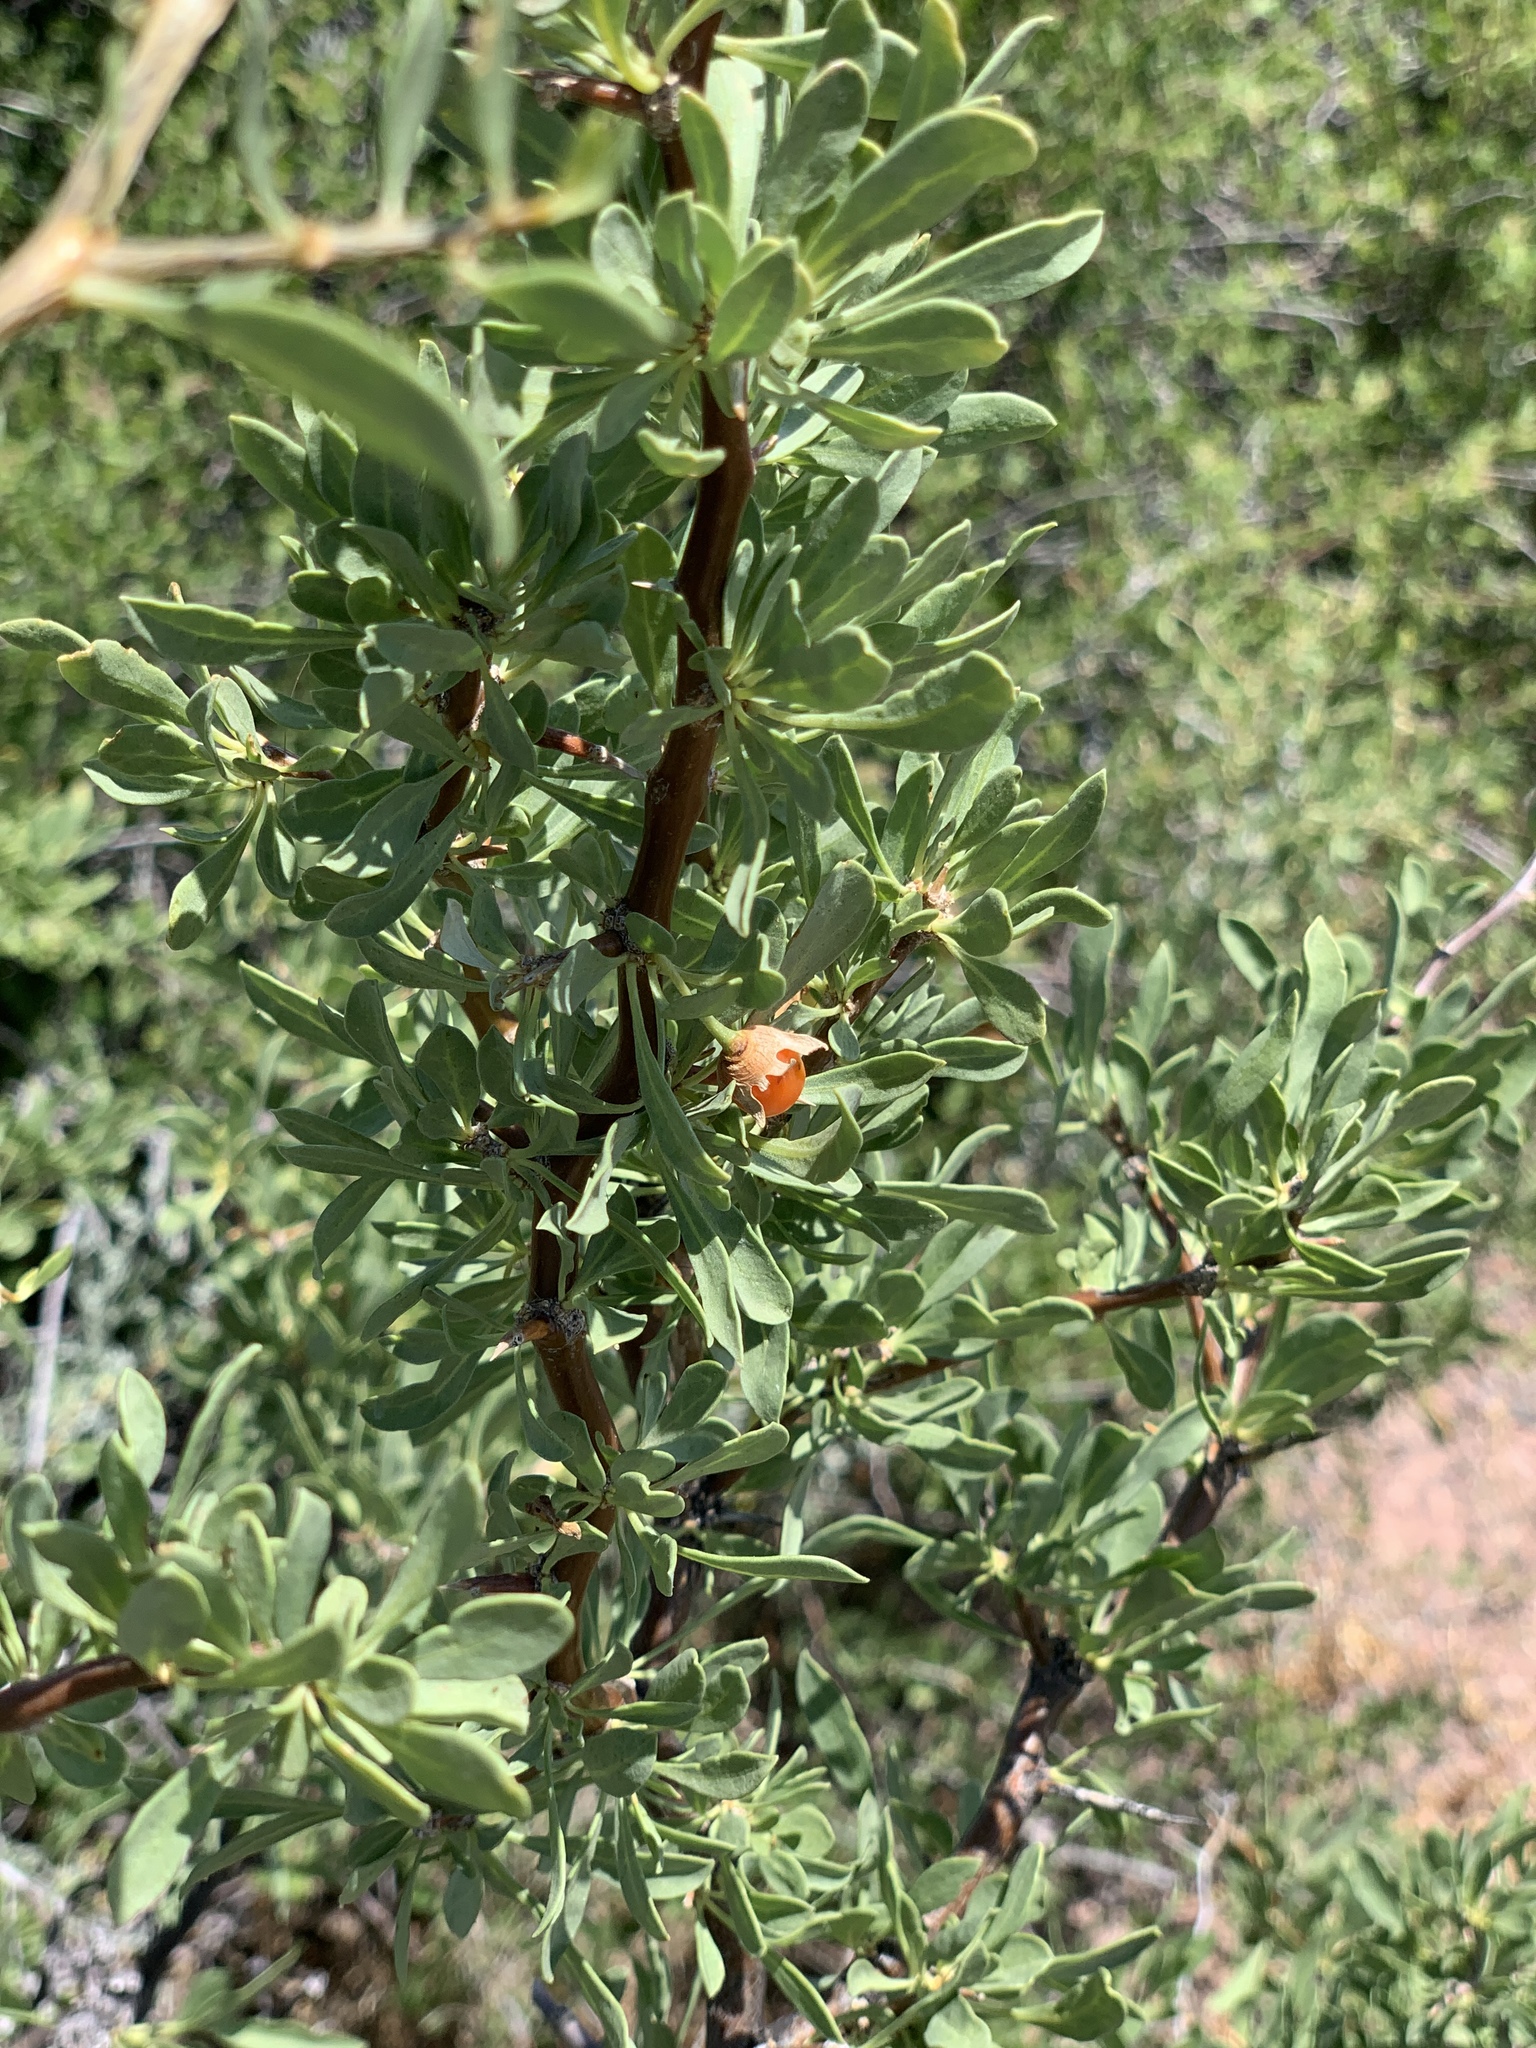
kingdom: Plantae
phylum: Tracheophyta
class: Magnoliopsida
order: Solanales
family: Solanaceae
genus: Lycium
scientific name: Lycium pallidum
